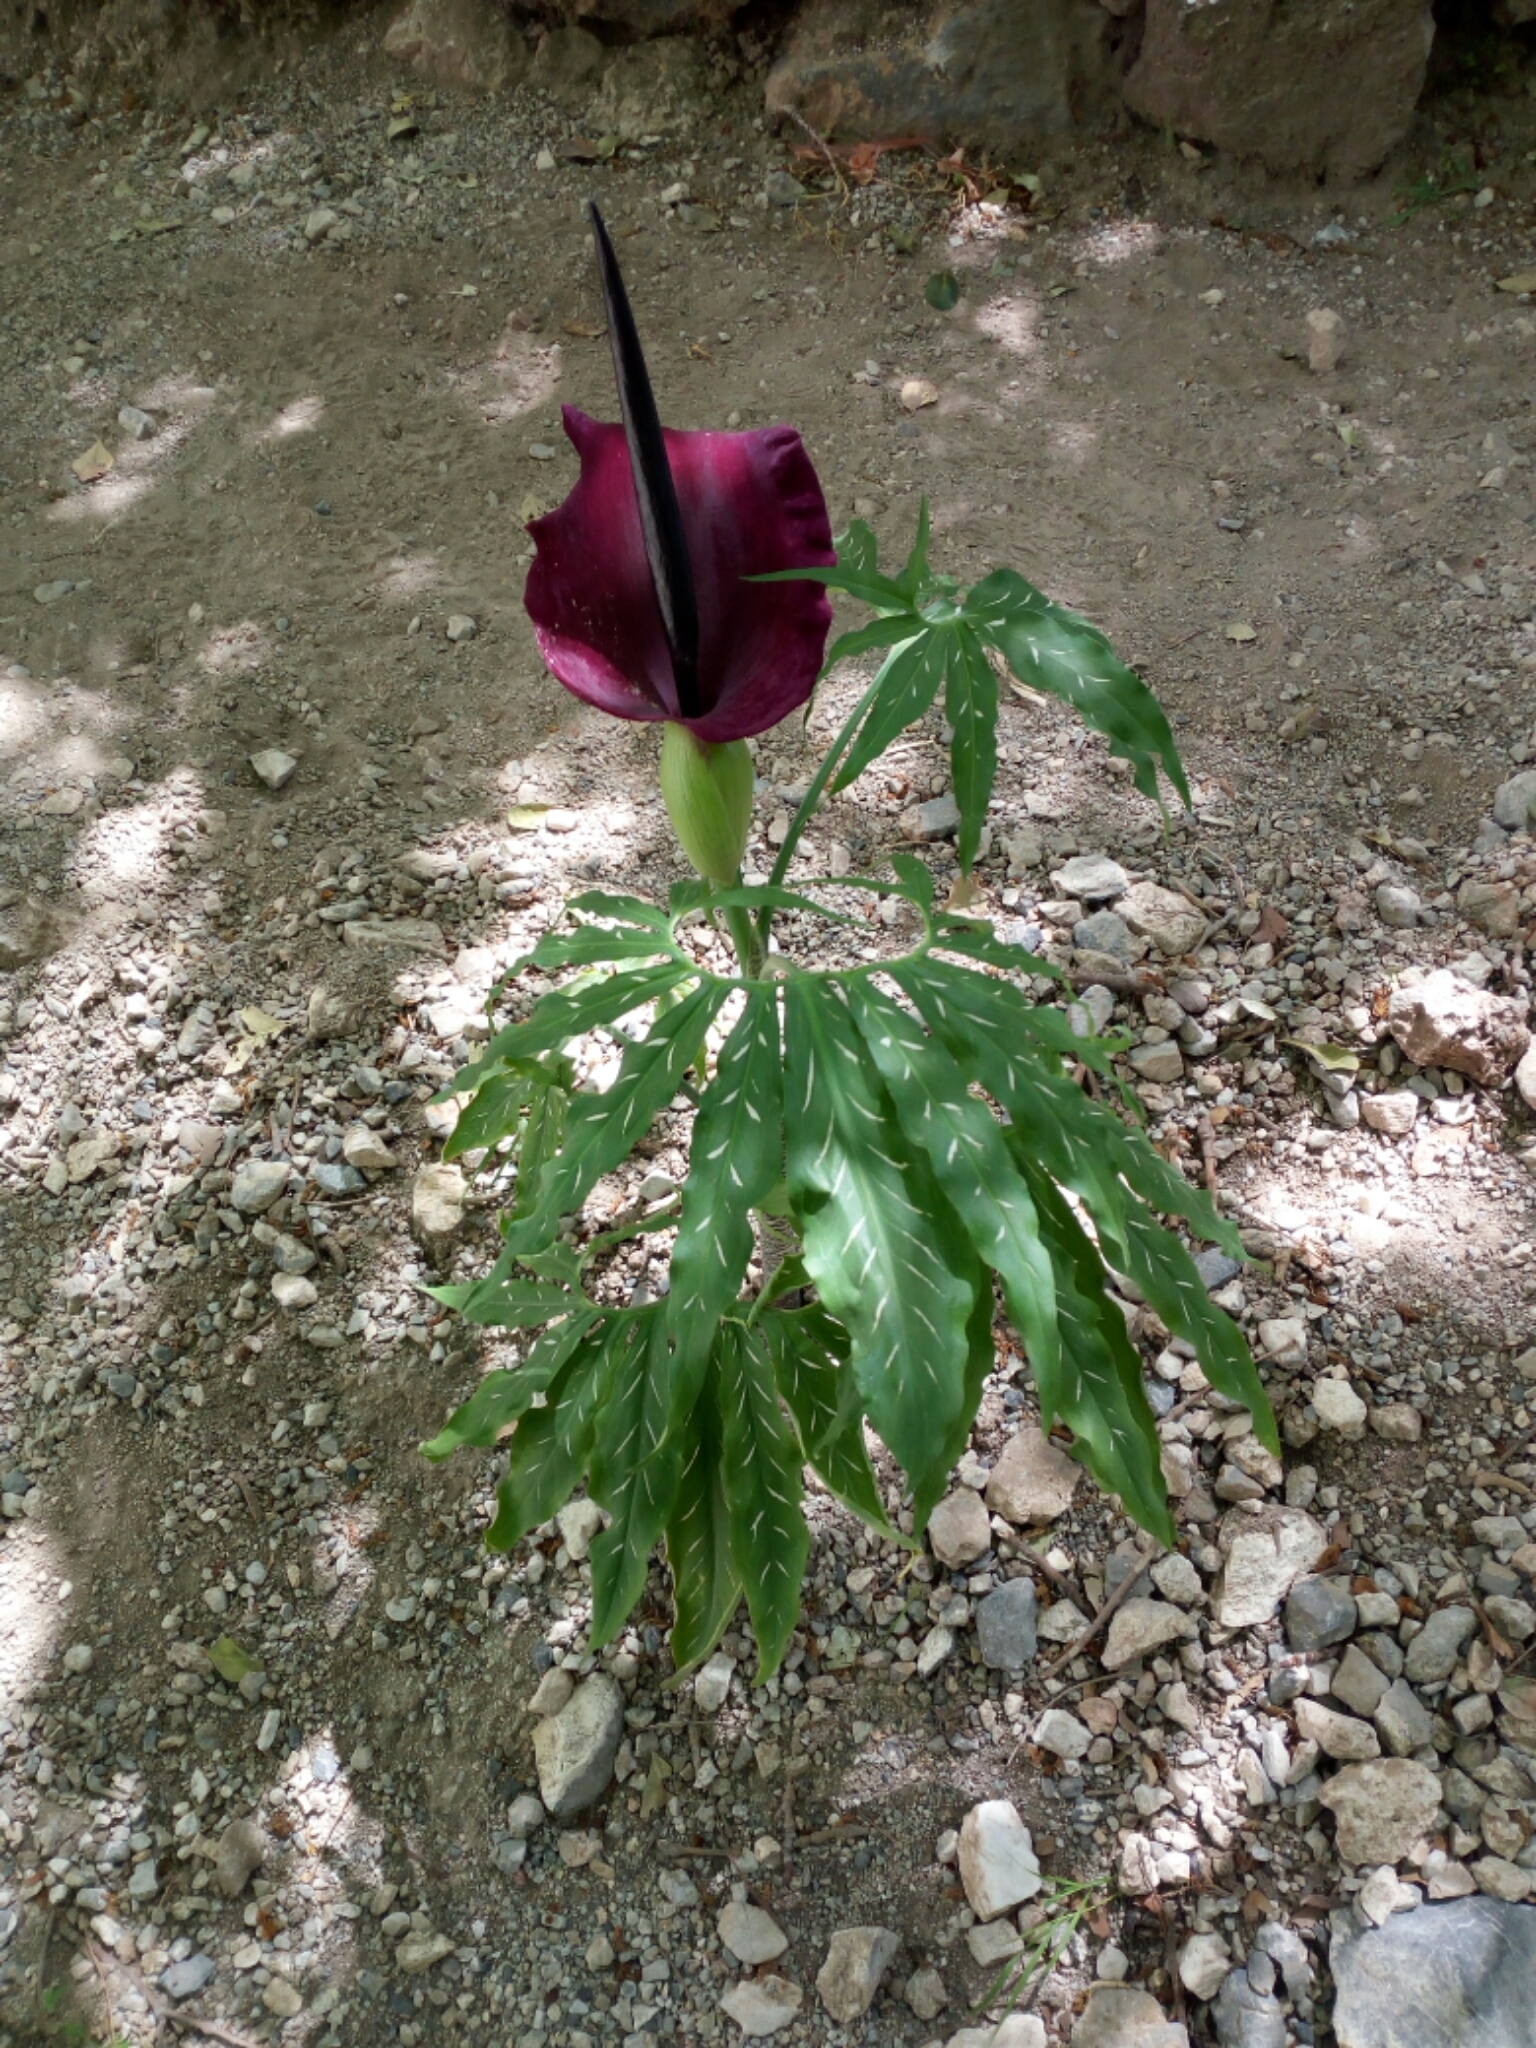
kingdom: Plantae
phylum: Tracheophyta
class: Liliopsida
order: Alismatales
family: Araceae
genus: Dracunculus
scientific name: Dracunculus vulgaris
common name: Dragon arum
